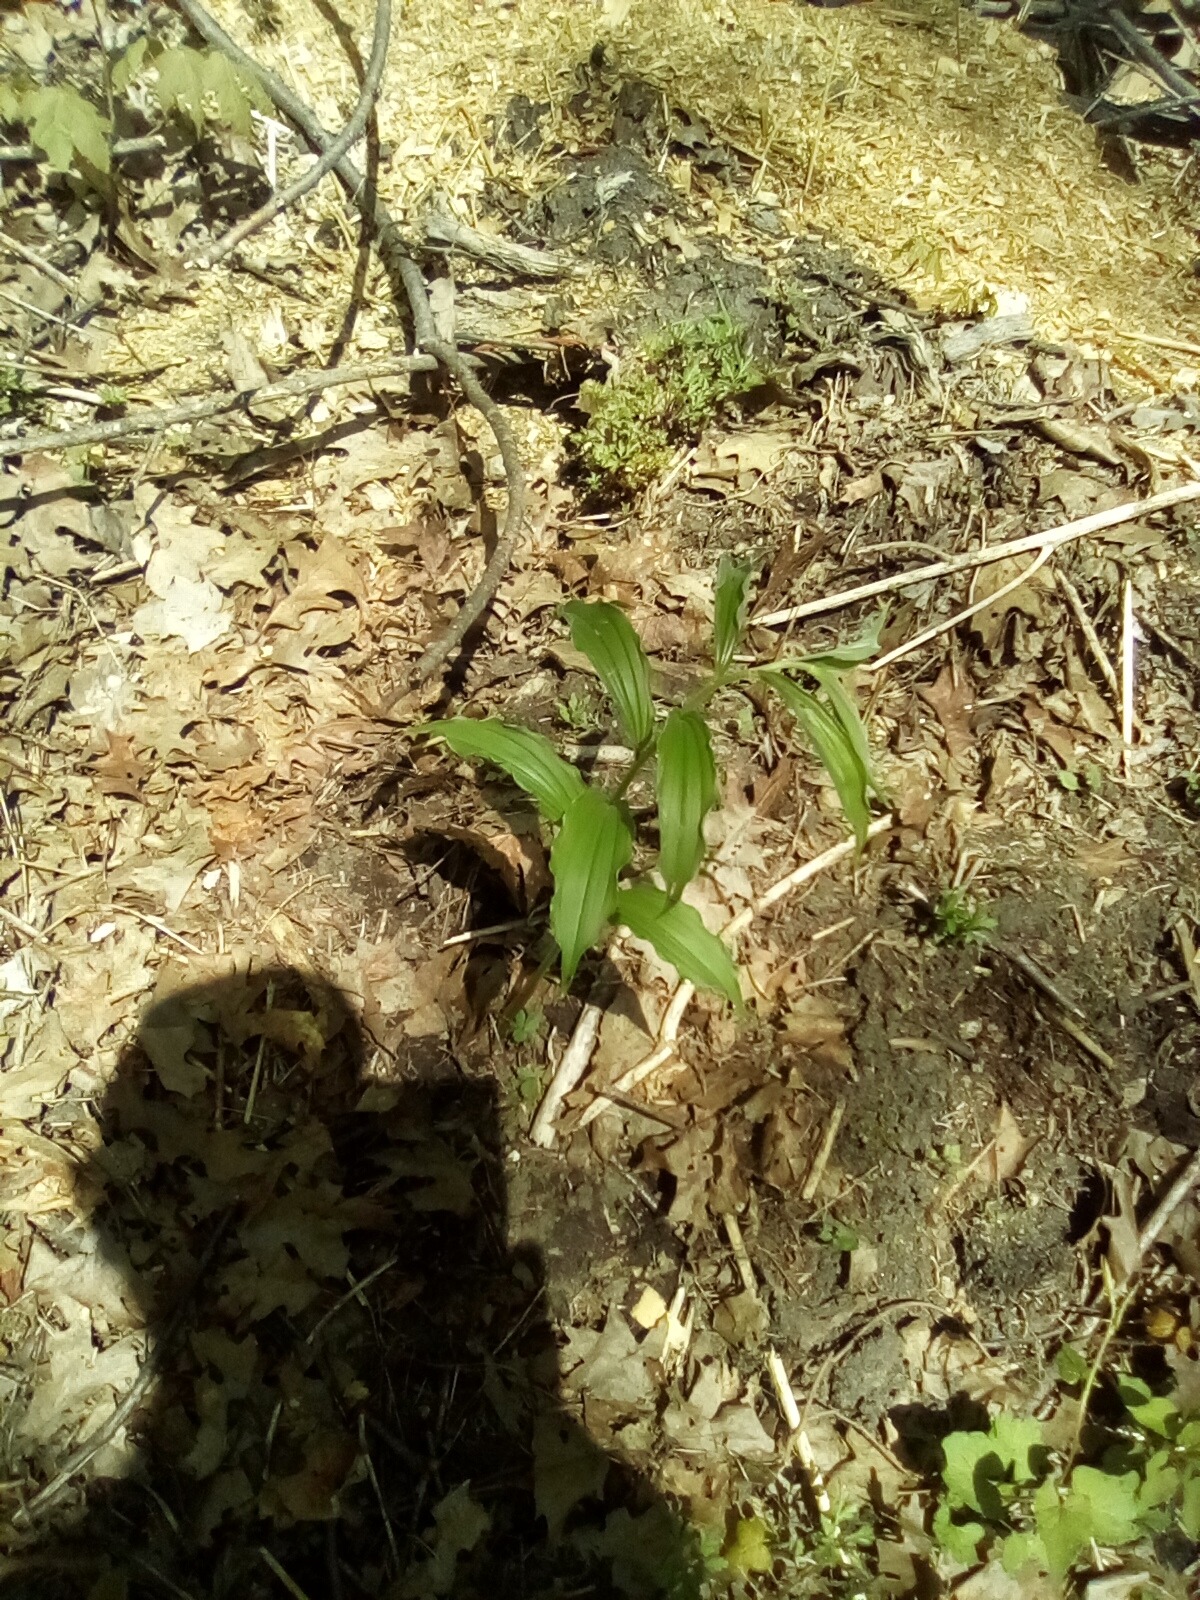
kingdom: Plantae
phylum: Tracheophyta
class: Liliopsida
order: Asparagales
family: Asparagaceae
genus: Maianthemum
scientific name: Maianthemum racemosum
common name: False spikenard
